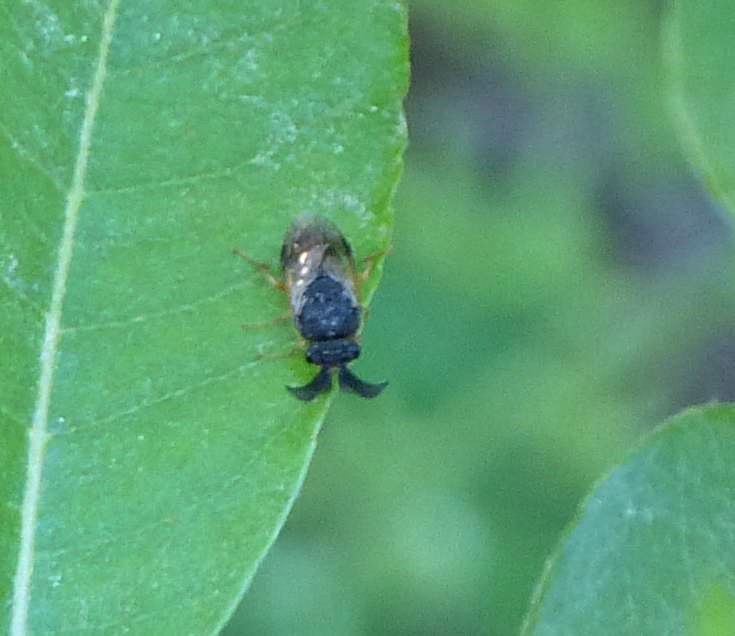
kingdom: Animalia
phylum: Arthropoda
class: Insecta
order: Hymenoptera
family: Diprionidae
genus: Diprion
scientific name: Diprion similis
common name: Pine sawfly
